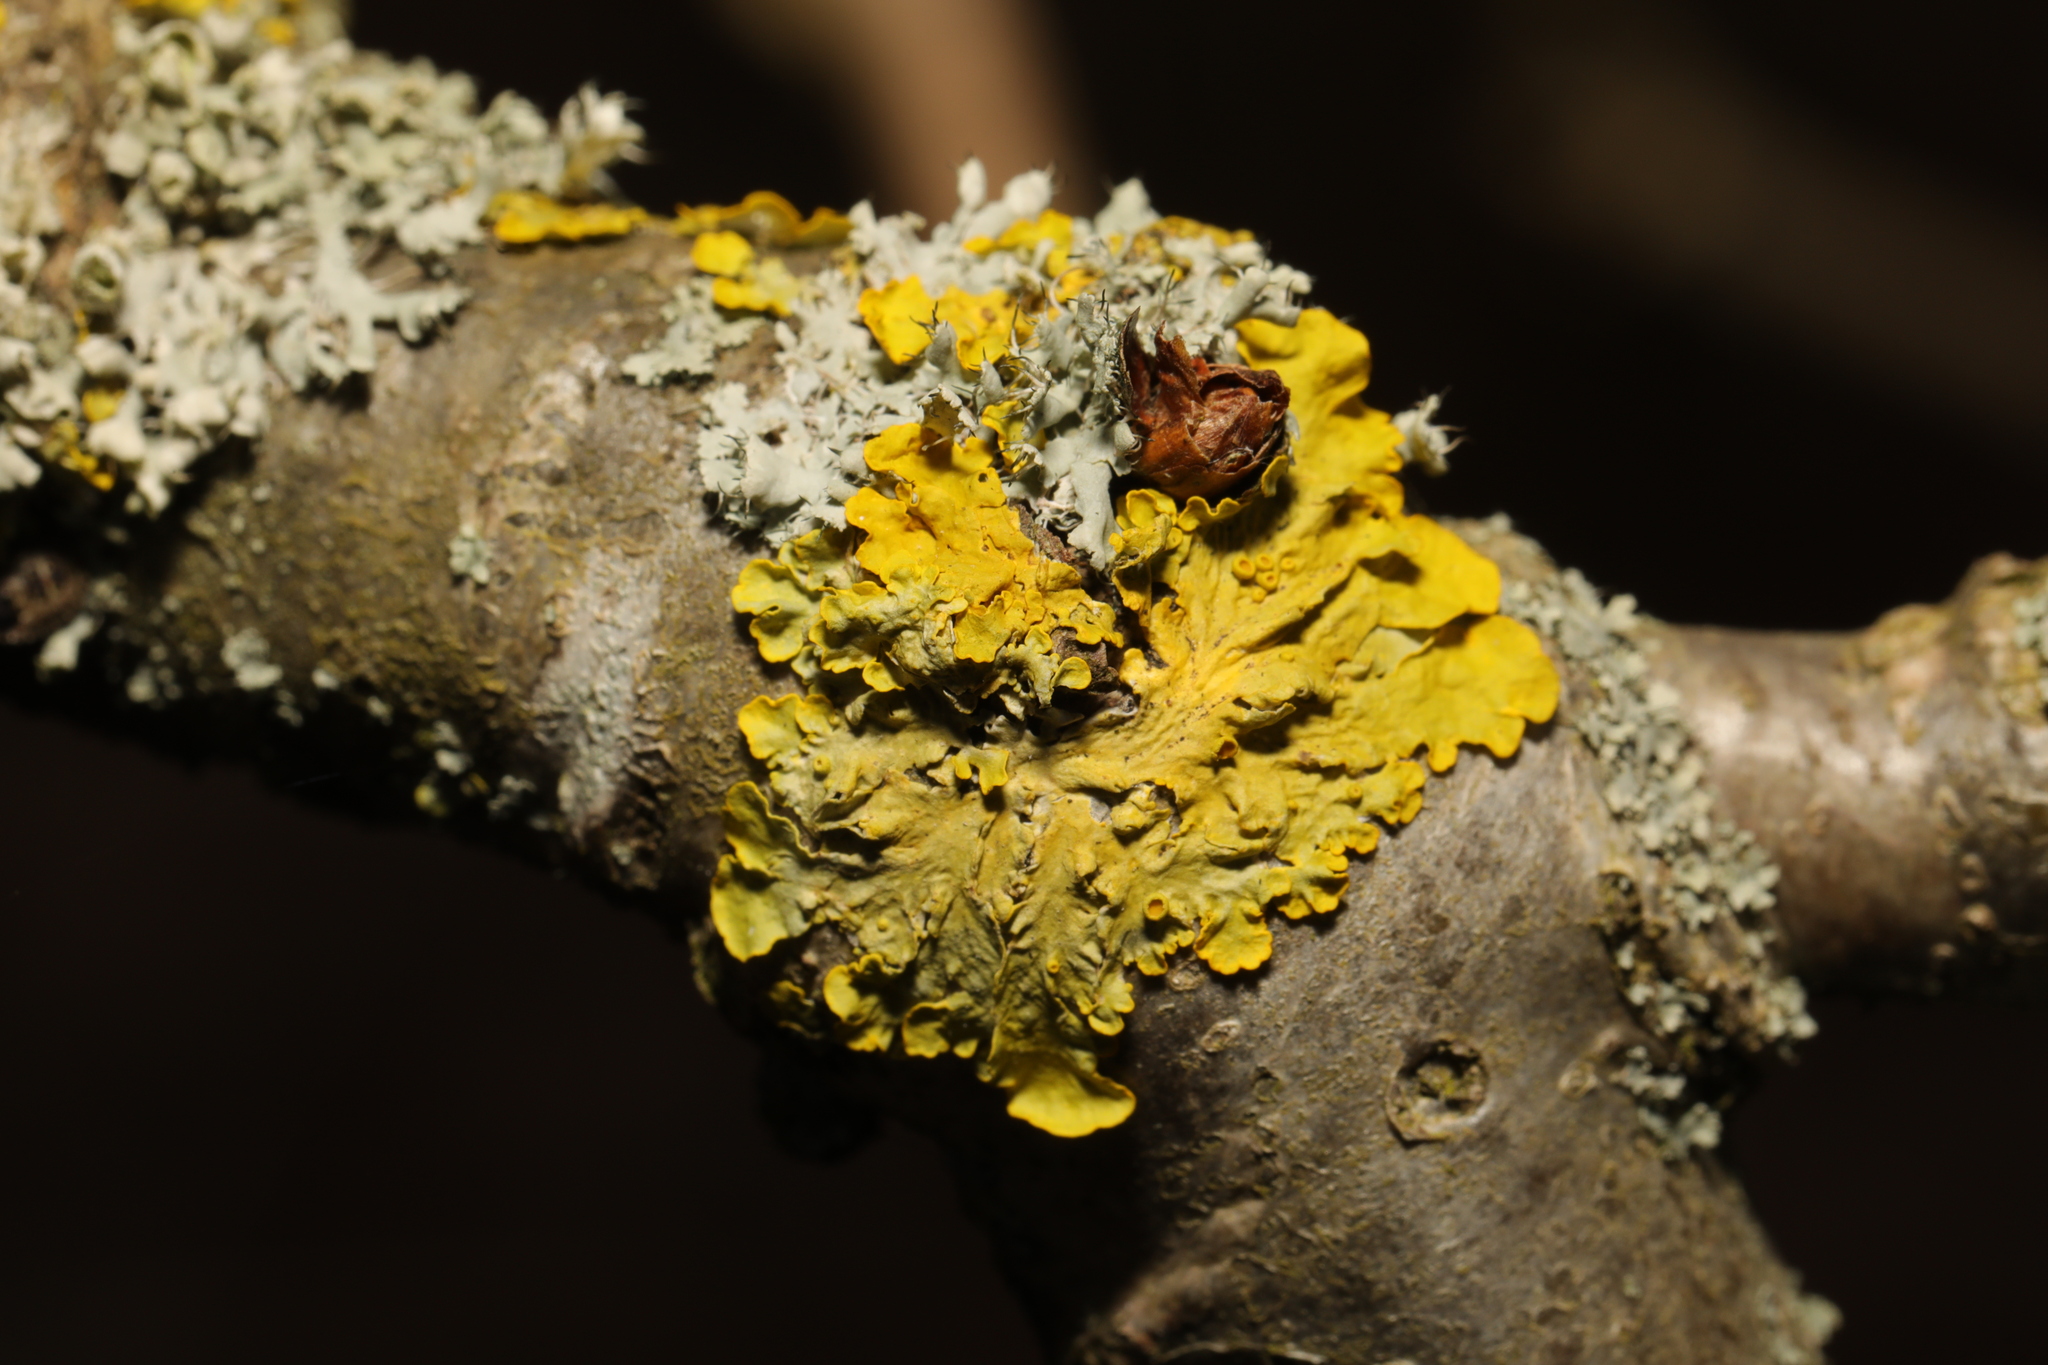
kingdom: Fungi
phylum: Ascomycota
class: Lecanoromycetes
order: Teloschistales
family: Teloschistaceae
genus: Xanthoria
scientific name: Xanthoria parietina
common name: Common orange lichen
